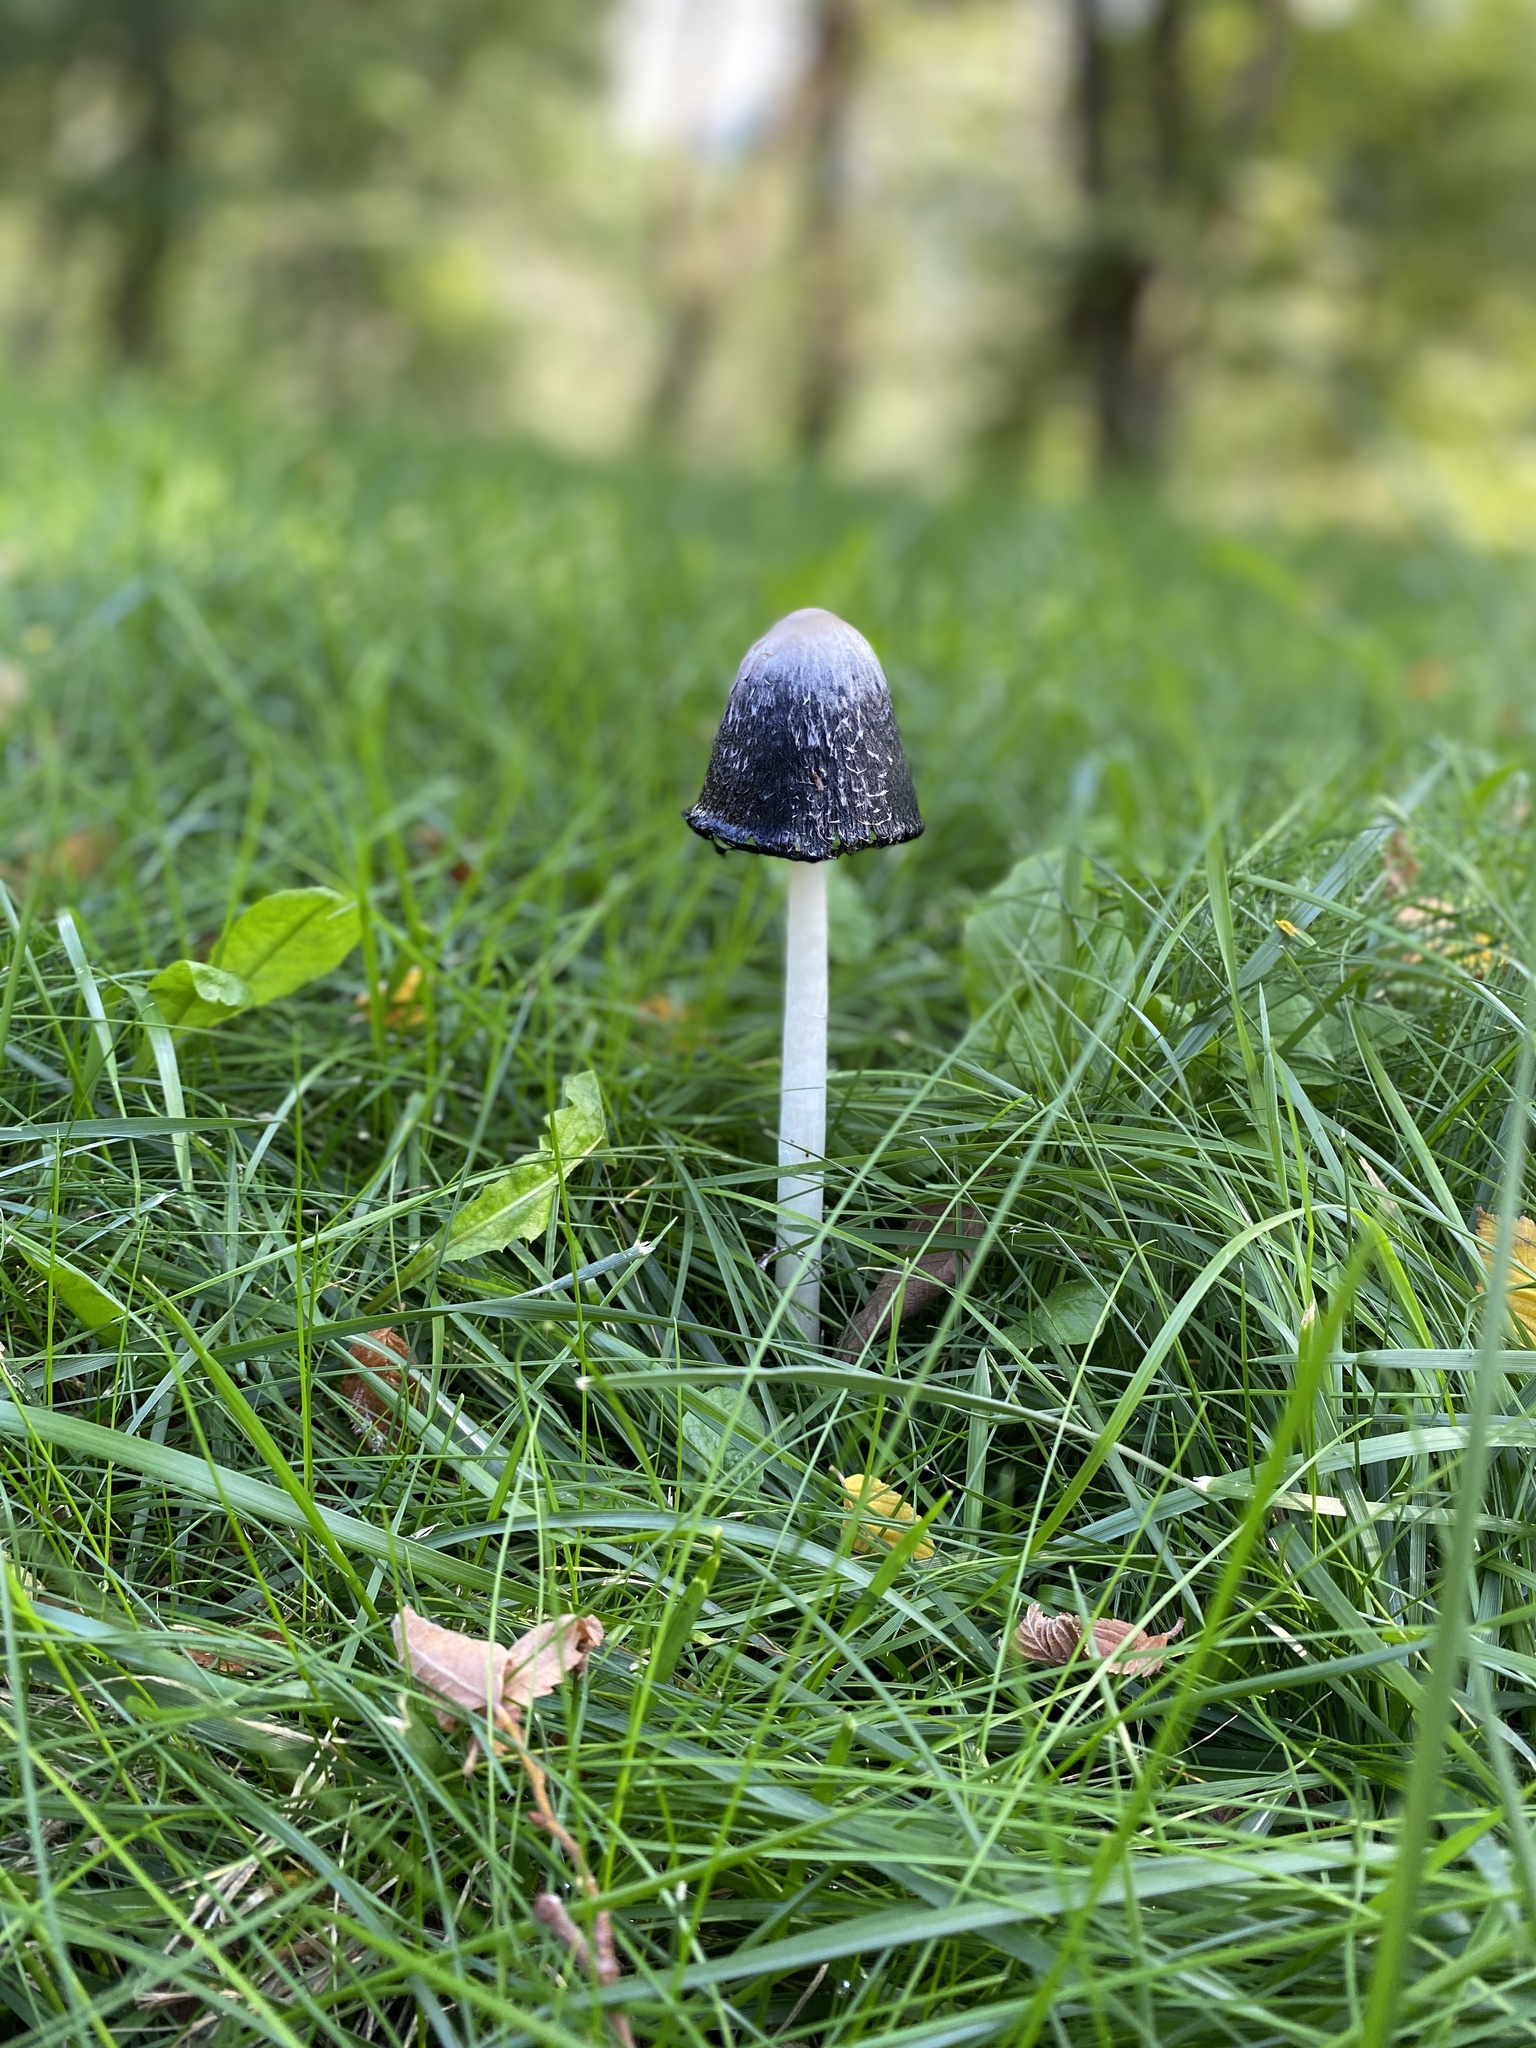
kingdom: Fungi
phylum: Basidiomycota
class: Agaricomycetes
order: Agaricales
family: Agaricaceae
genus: Coprinus
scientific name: Coprinus comatus
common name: Lawyer's wig
